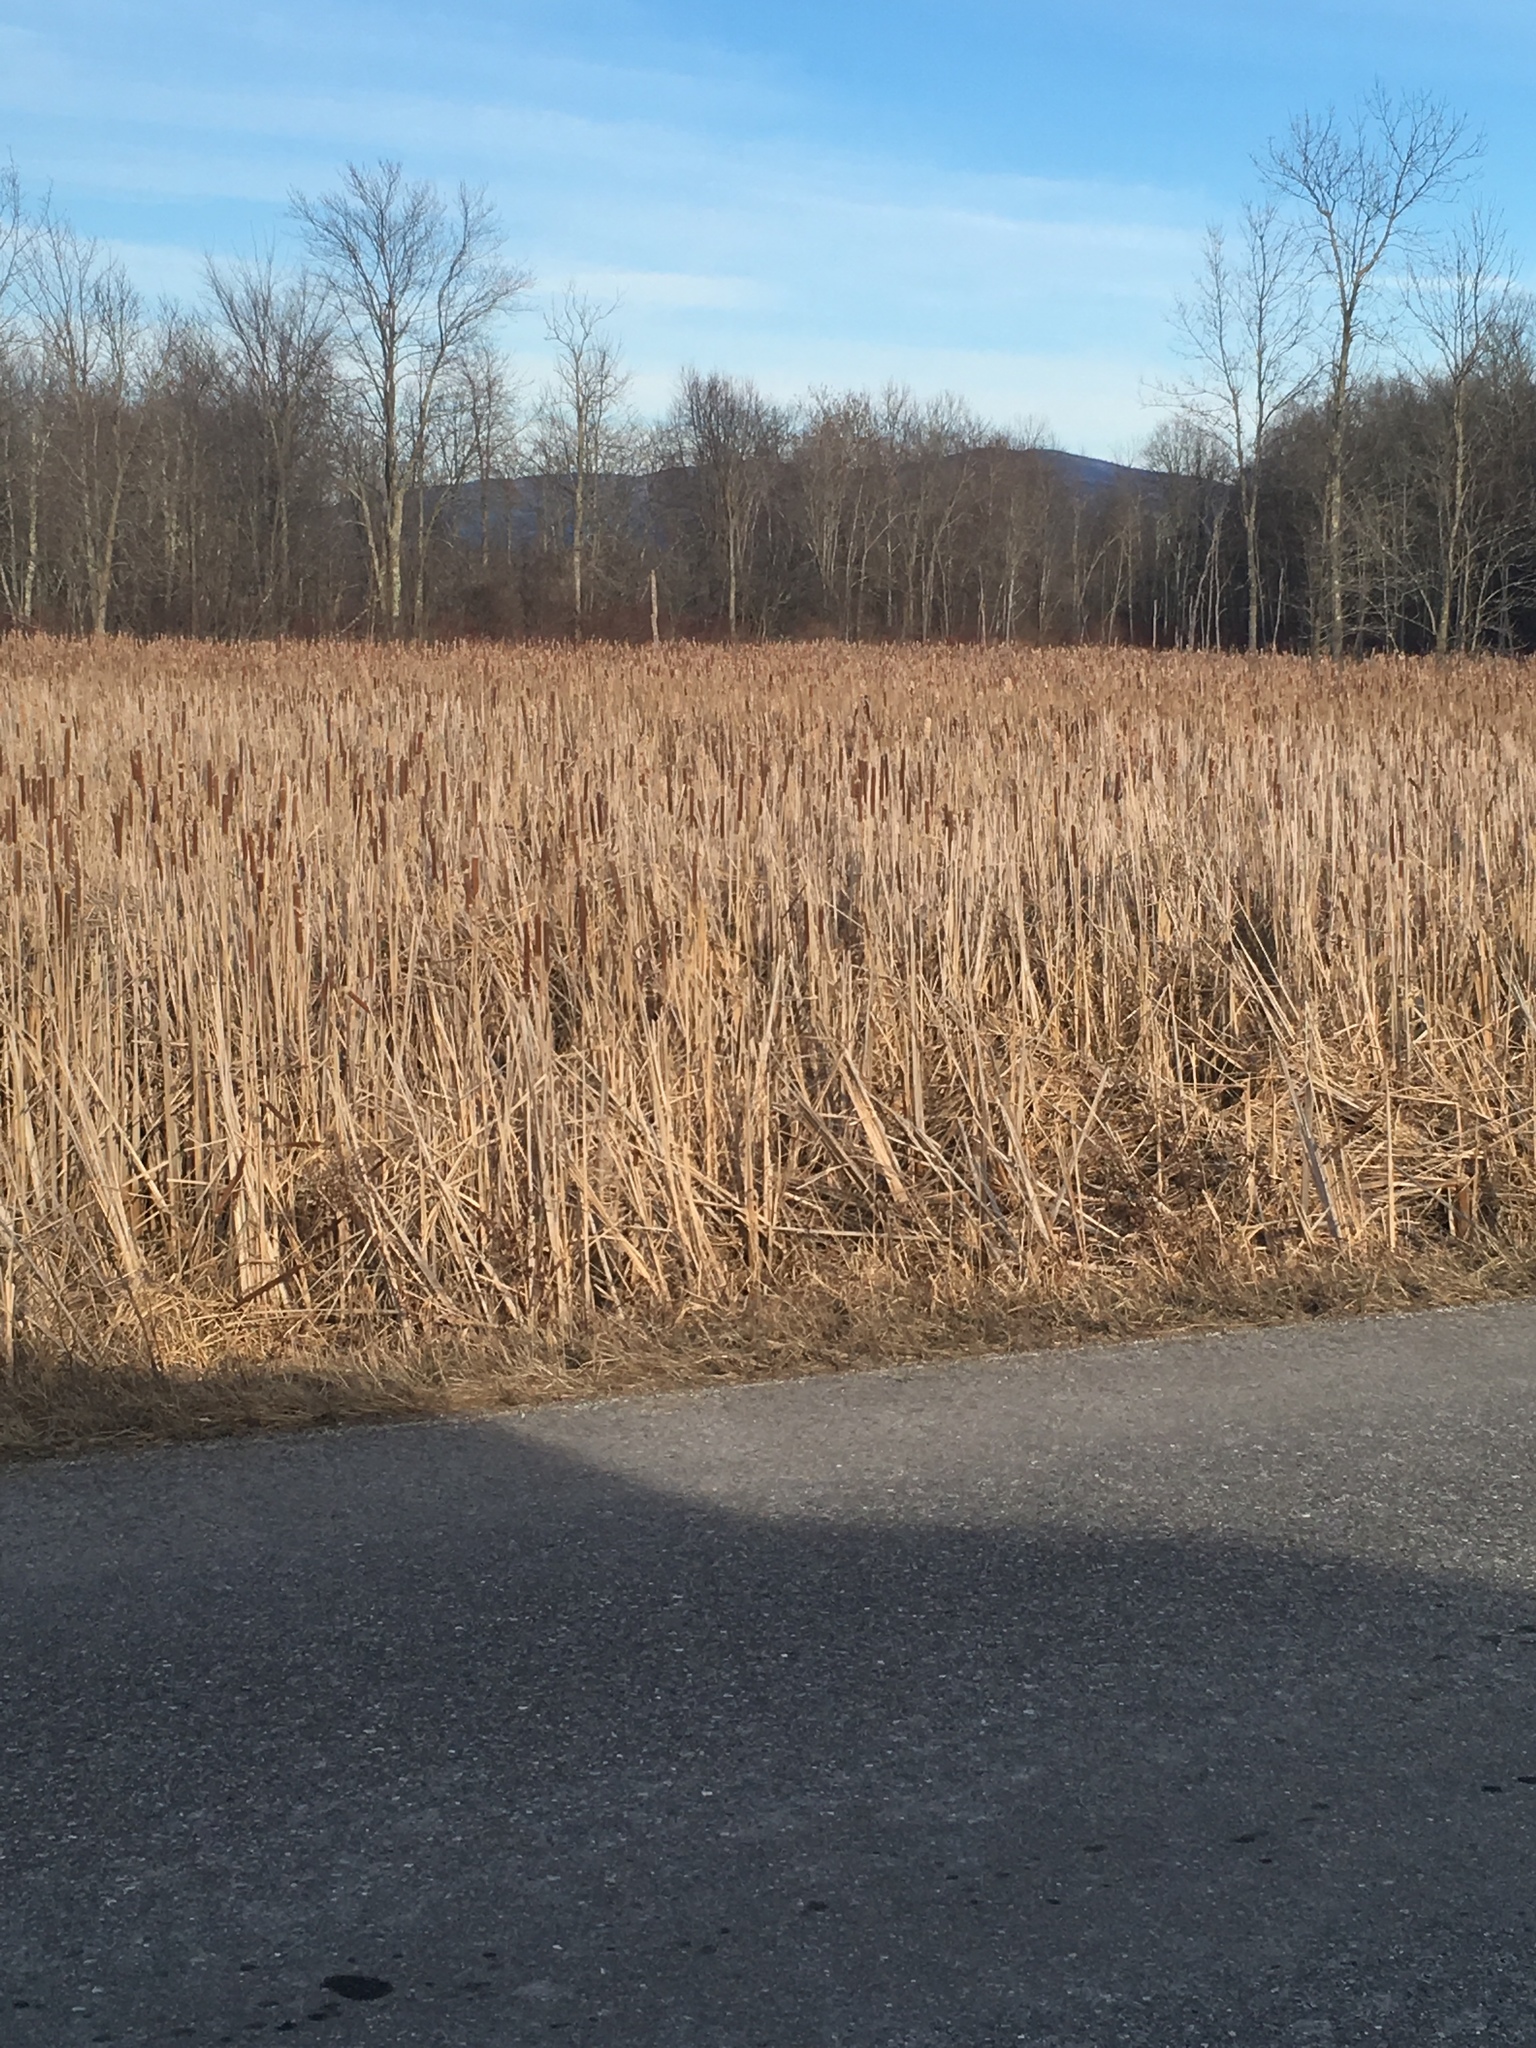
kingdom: Plantae
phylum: Tracheophyta
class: Liliopsida
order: Poales
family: Typhaceae
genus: Typha
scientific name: Typha
